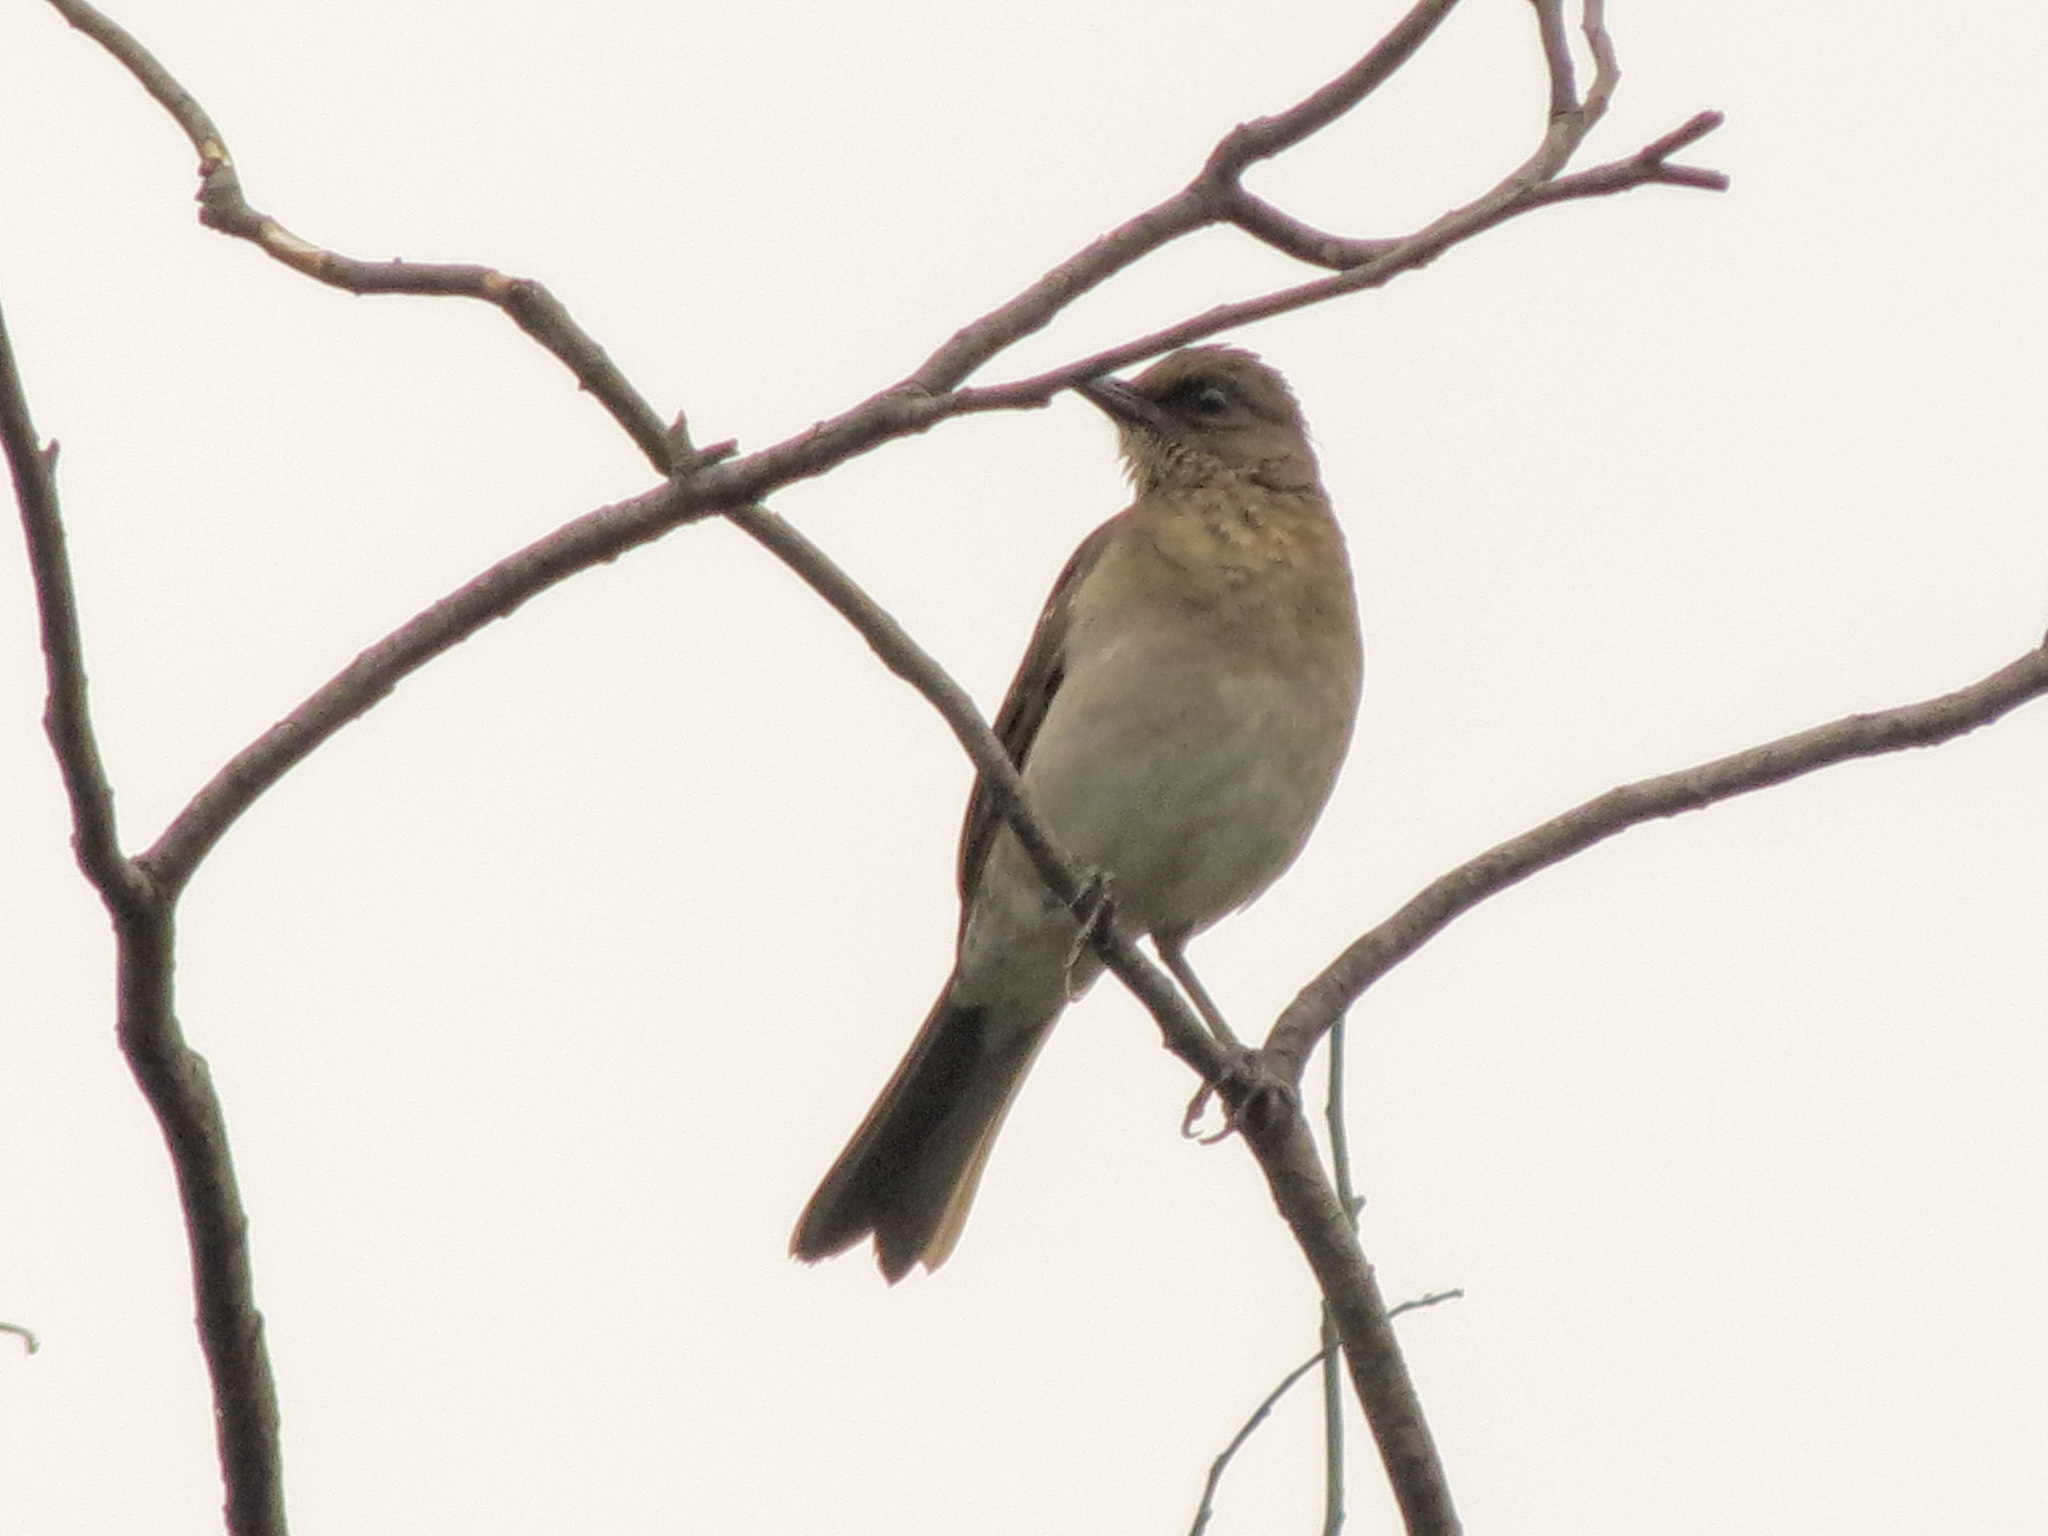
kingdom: Animalia
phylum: Chordata
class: Aves
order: Passeriformes
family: Turdidae
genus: Turdus
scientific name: Turdus ignobilis
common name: Black-billed thrush
